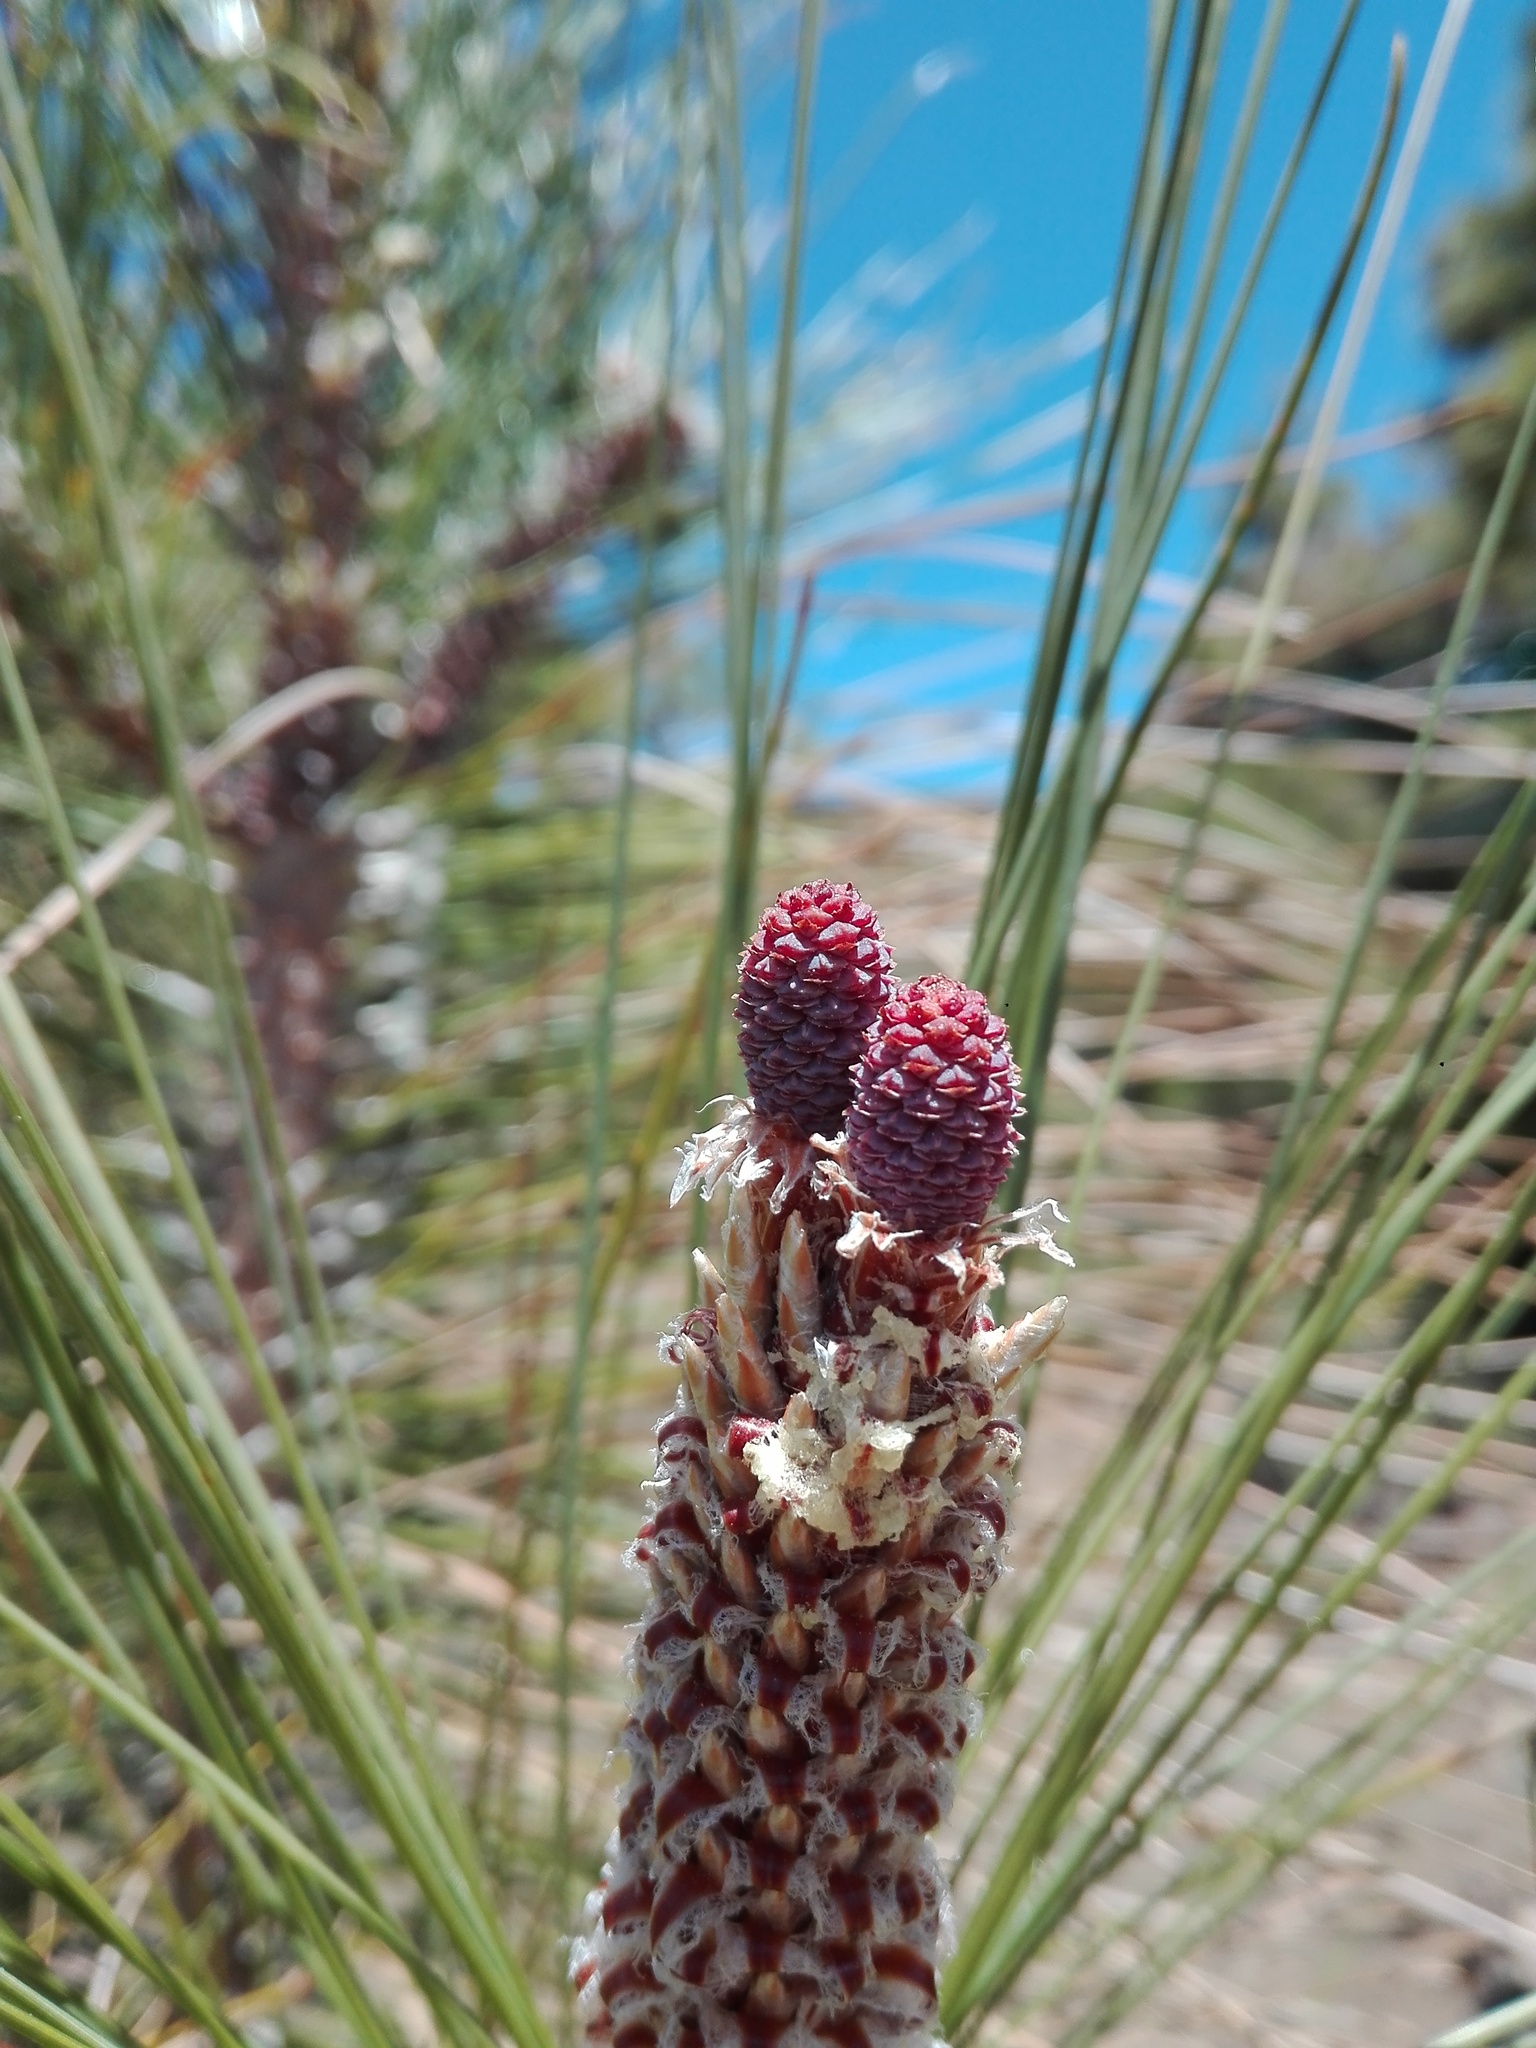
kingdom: Plantae
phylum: Tracheophyta
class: Pinopsida
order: Pinales
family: Pinaceae
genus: Pinus
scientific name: Pinus canariensis
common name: Canary islands pine
